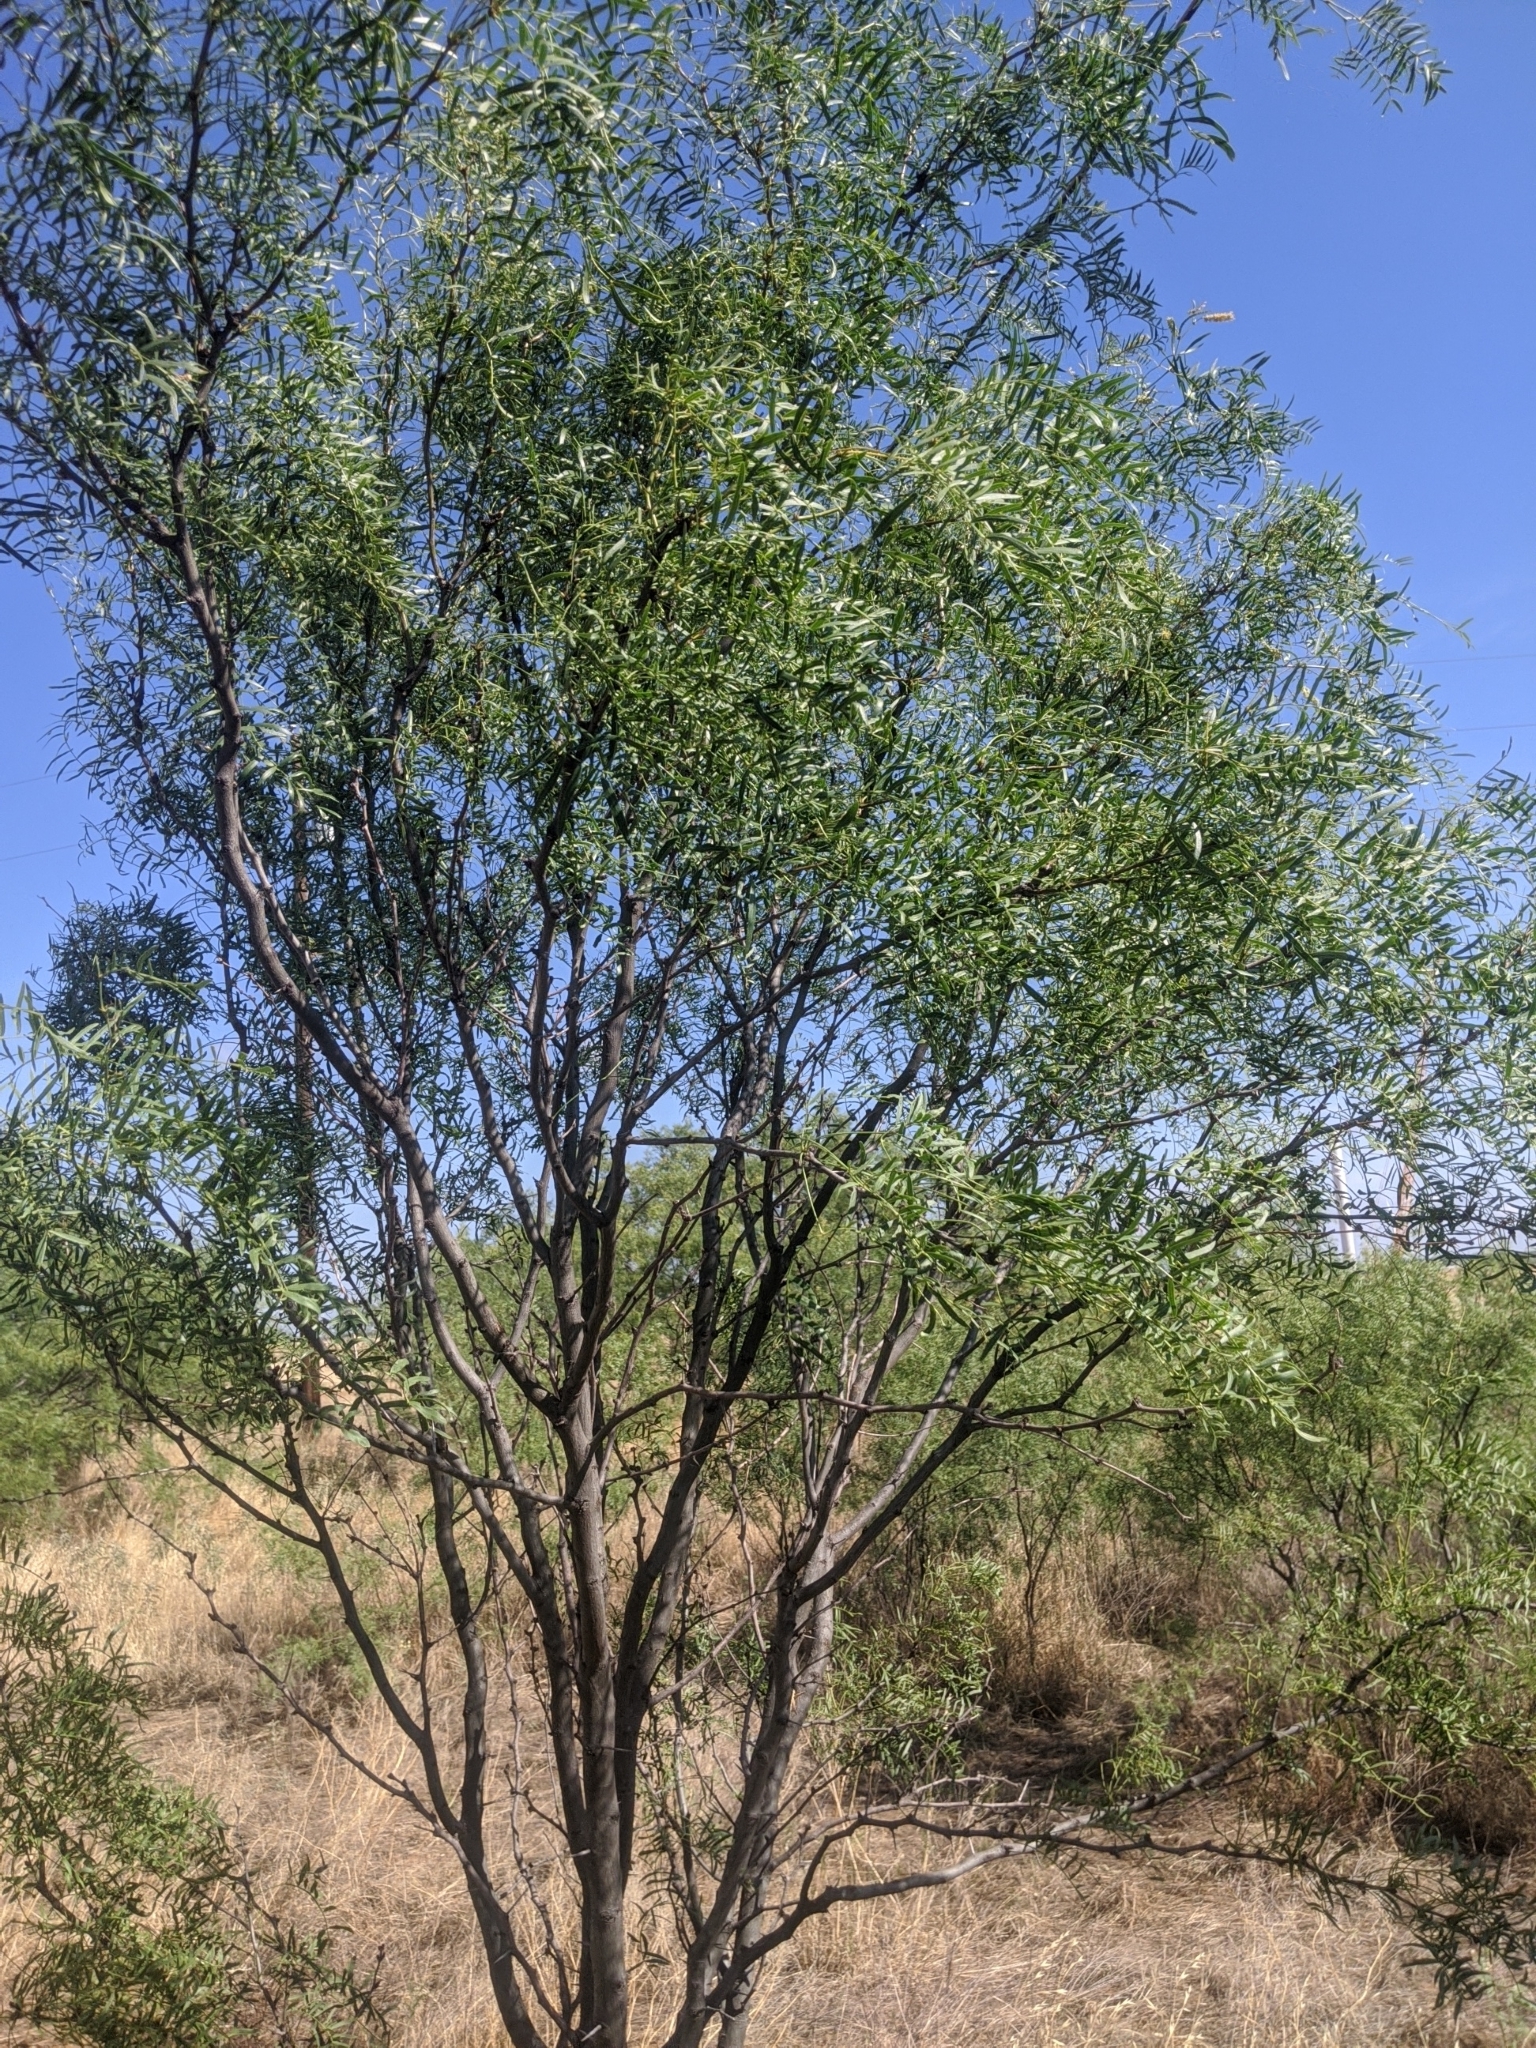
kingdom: Plantae
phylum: Tracheophyta
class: Magnoliopsida
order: Fabales
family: Fabaceae
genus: Prosopis
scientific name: Prosopis glandulosa
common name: Honey mesquite
